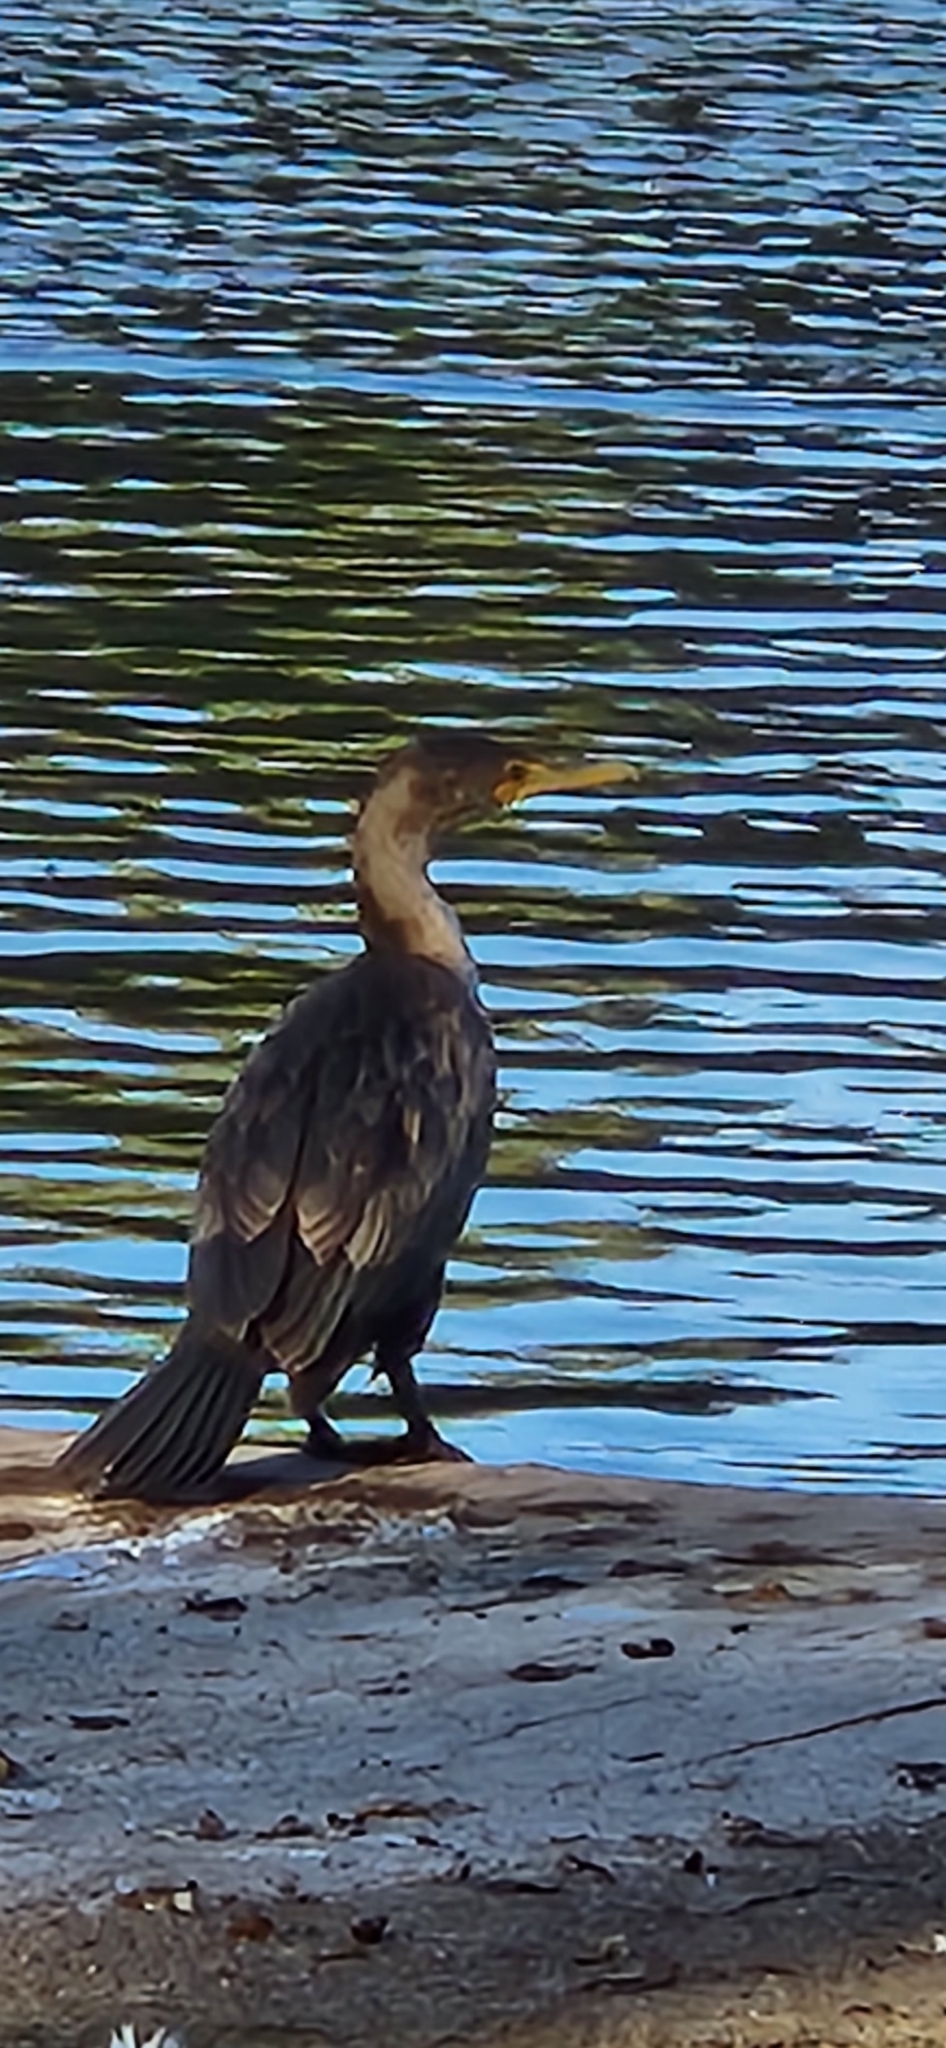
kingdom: Animalia
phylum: Chordata
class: Aves
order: Suliformes
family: Phalacrocoracidae
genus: Phalacrocorax
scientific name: Phalacrocorax auritus
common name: Double-crested cormorant
